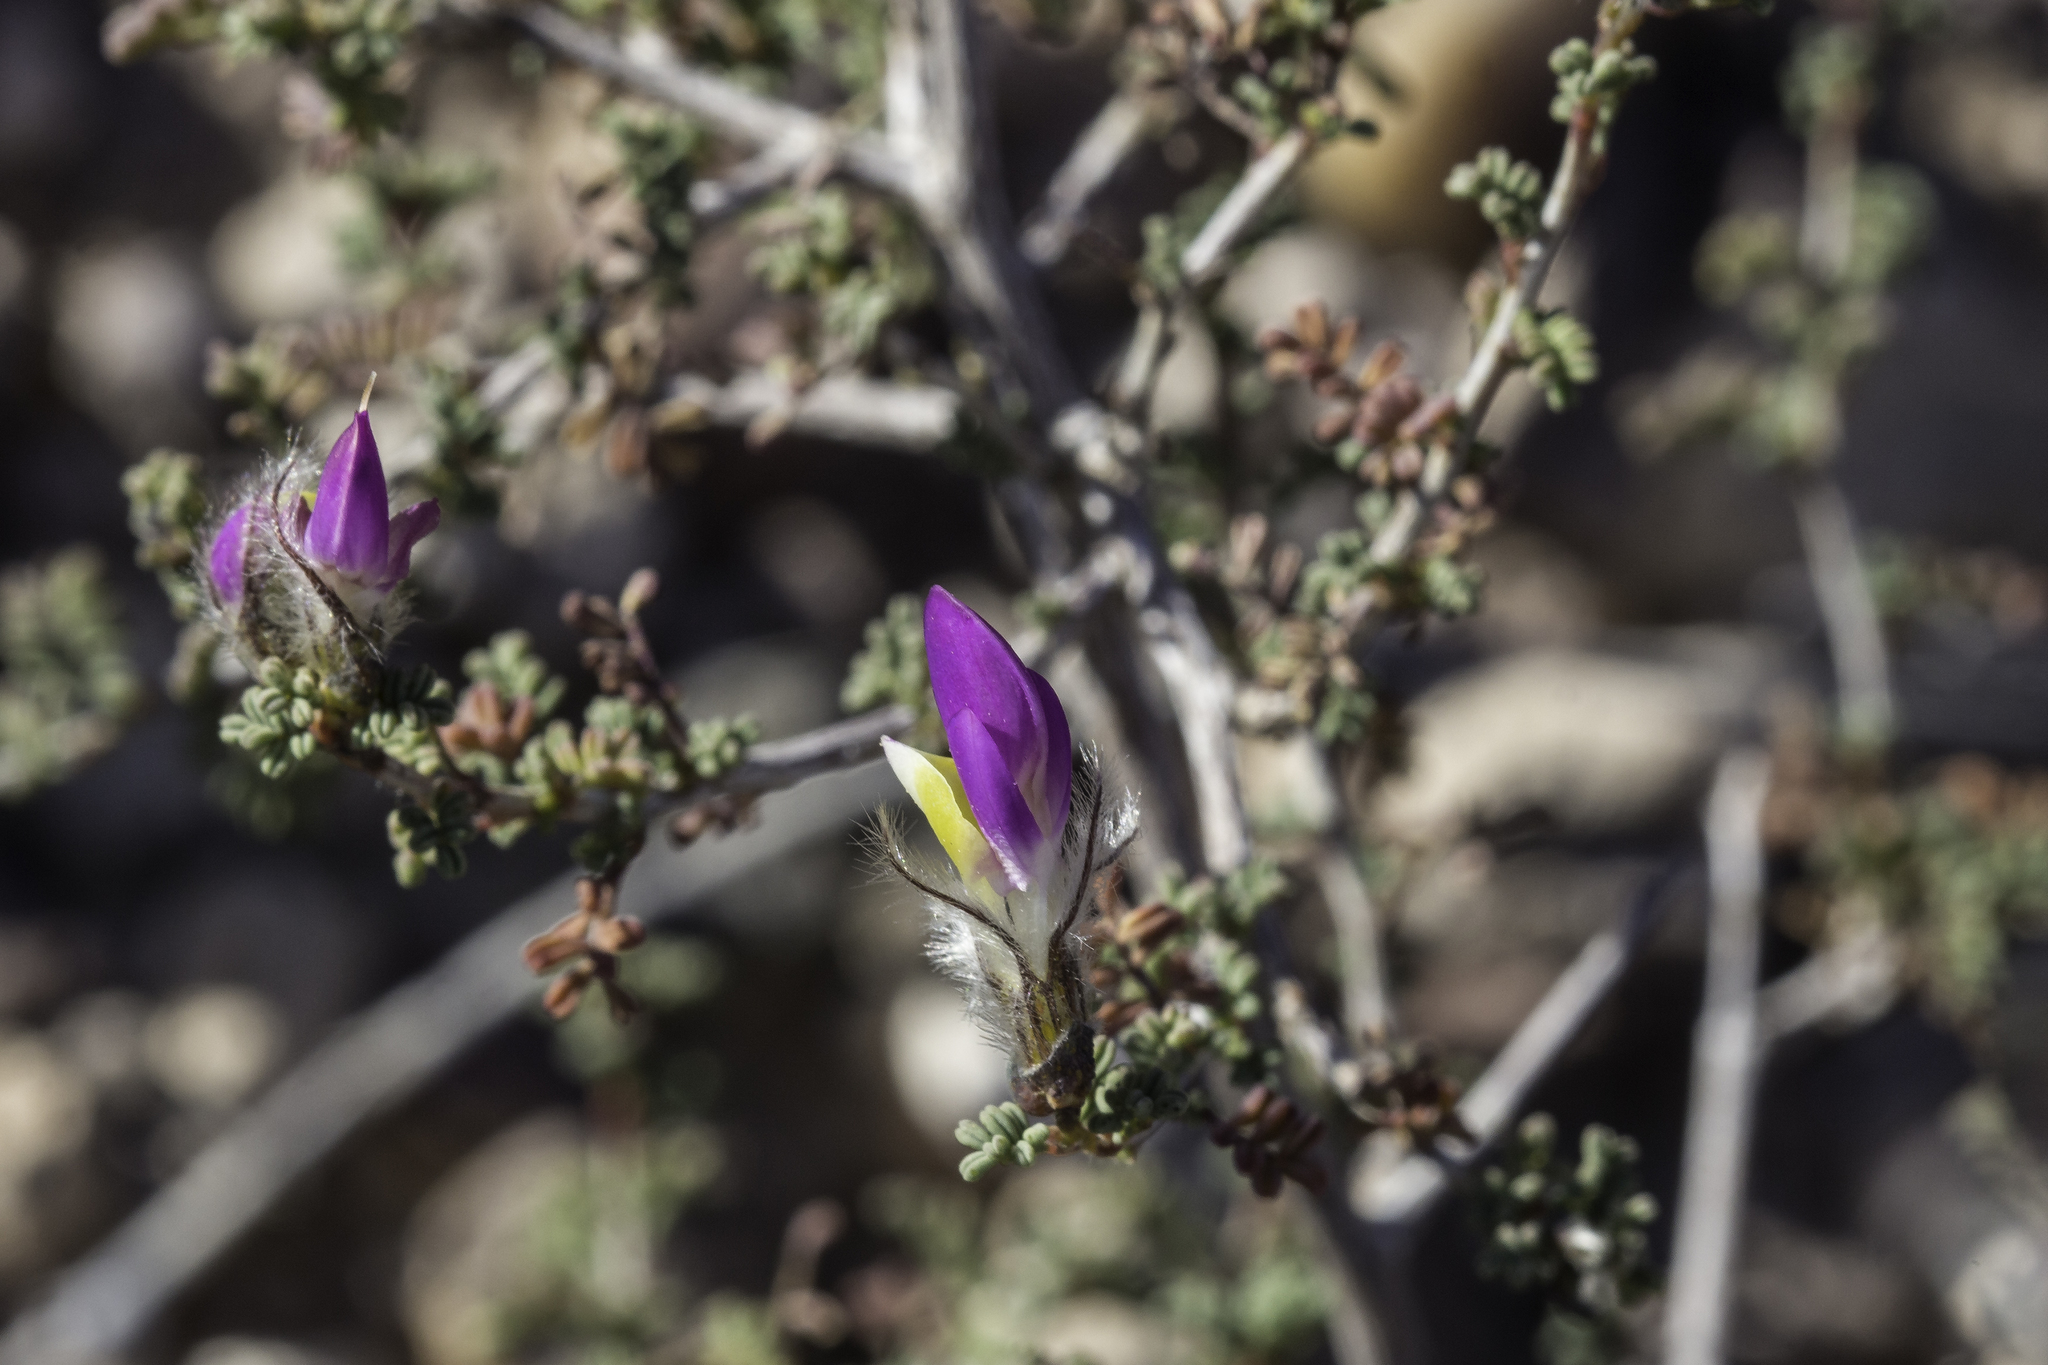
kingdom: Plantae
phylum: Tracheophyta
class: Magnoliopsida
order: Fabales
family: Fabaceae
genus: Dalea
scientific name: Dalea formosa
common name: Feather-plume dalea
